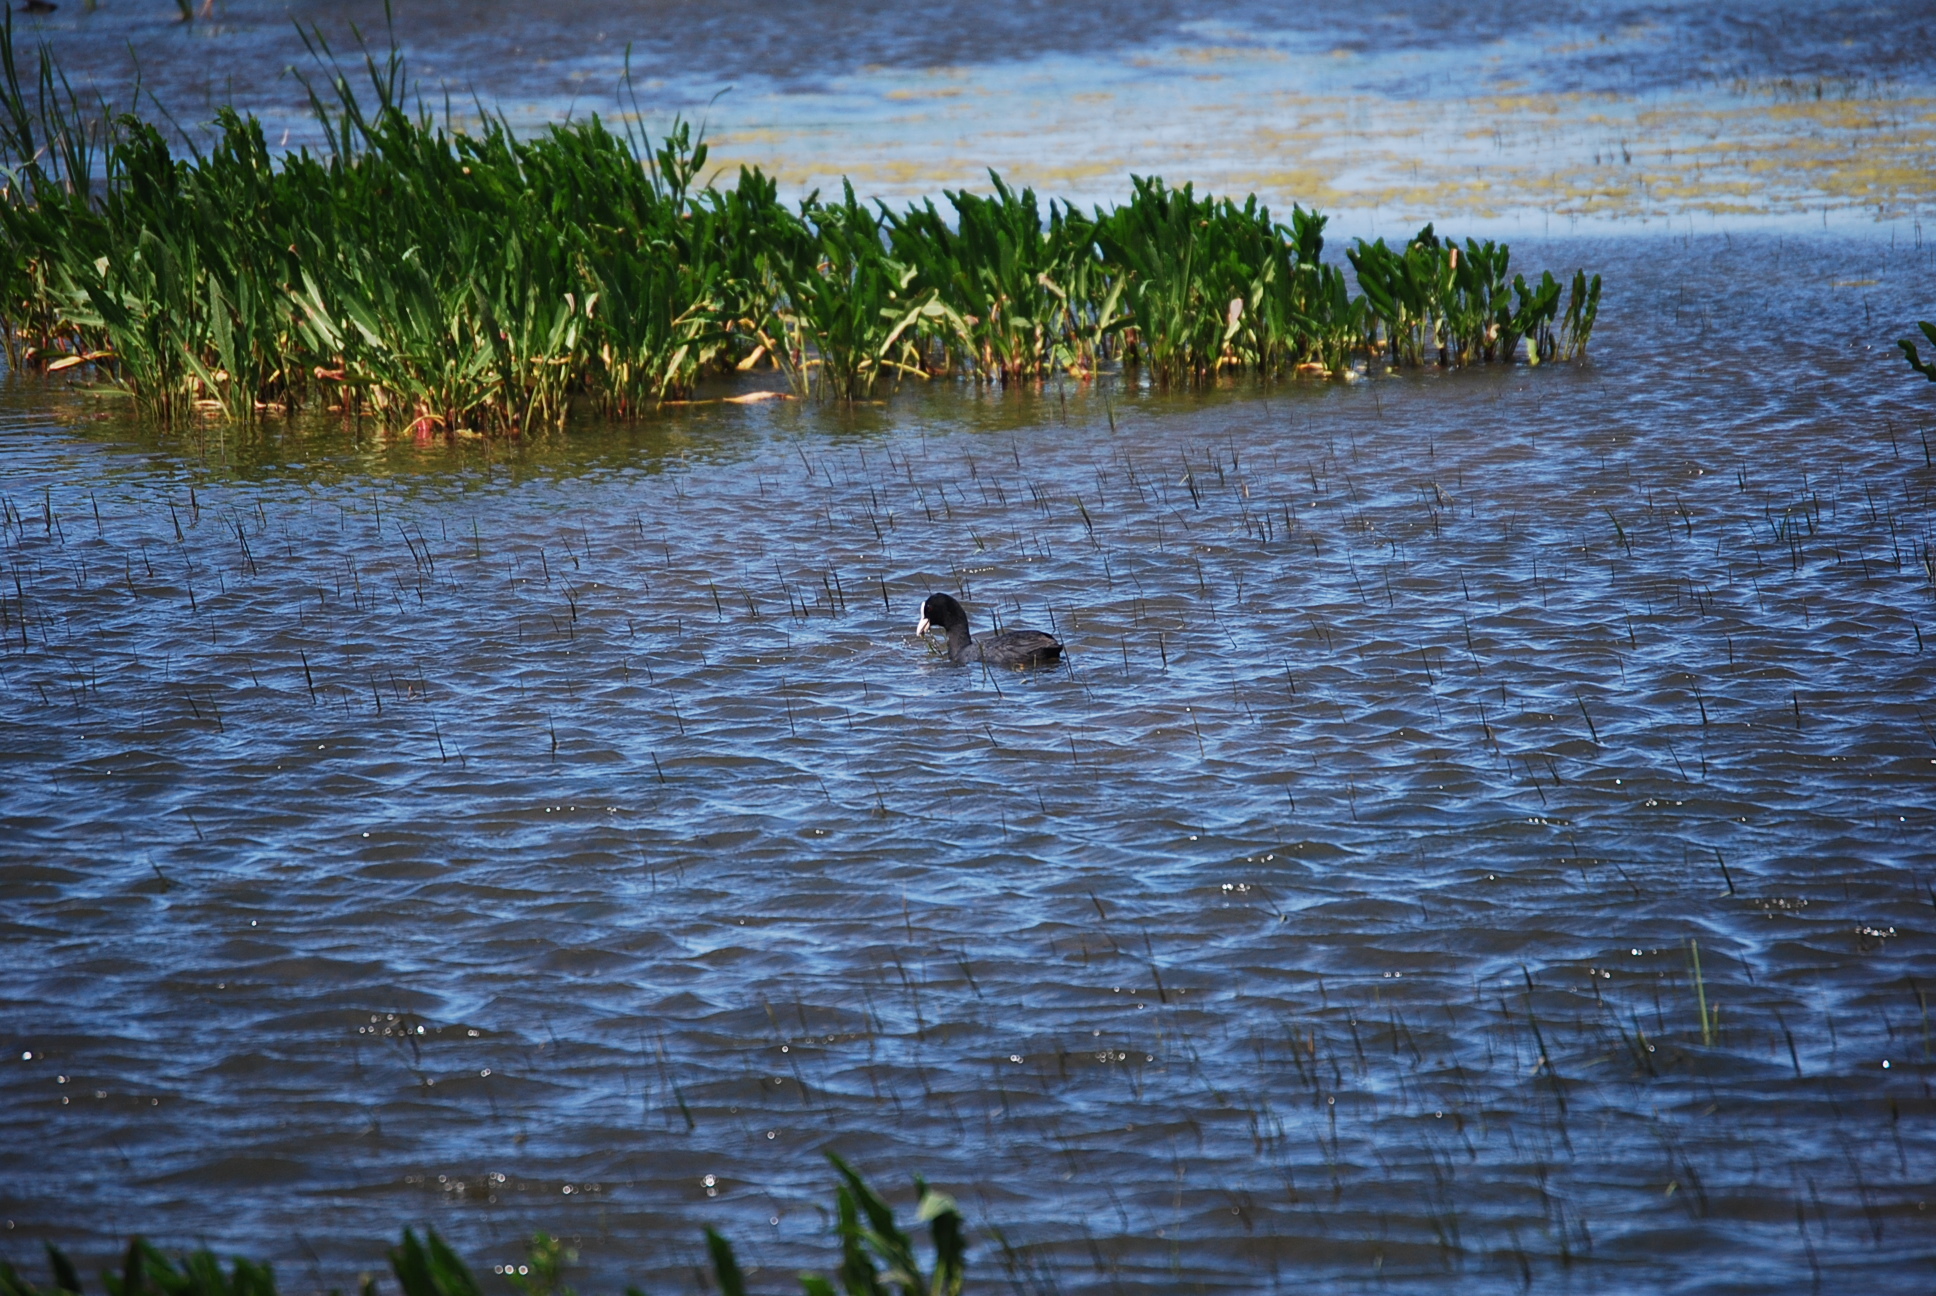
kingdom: Animalia
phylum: Chordata
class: Aves
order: Gruiformes
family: Rallidae
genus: Fulica
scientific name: Fulica atra
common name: Eurasian coot
